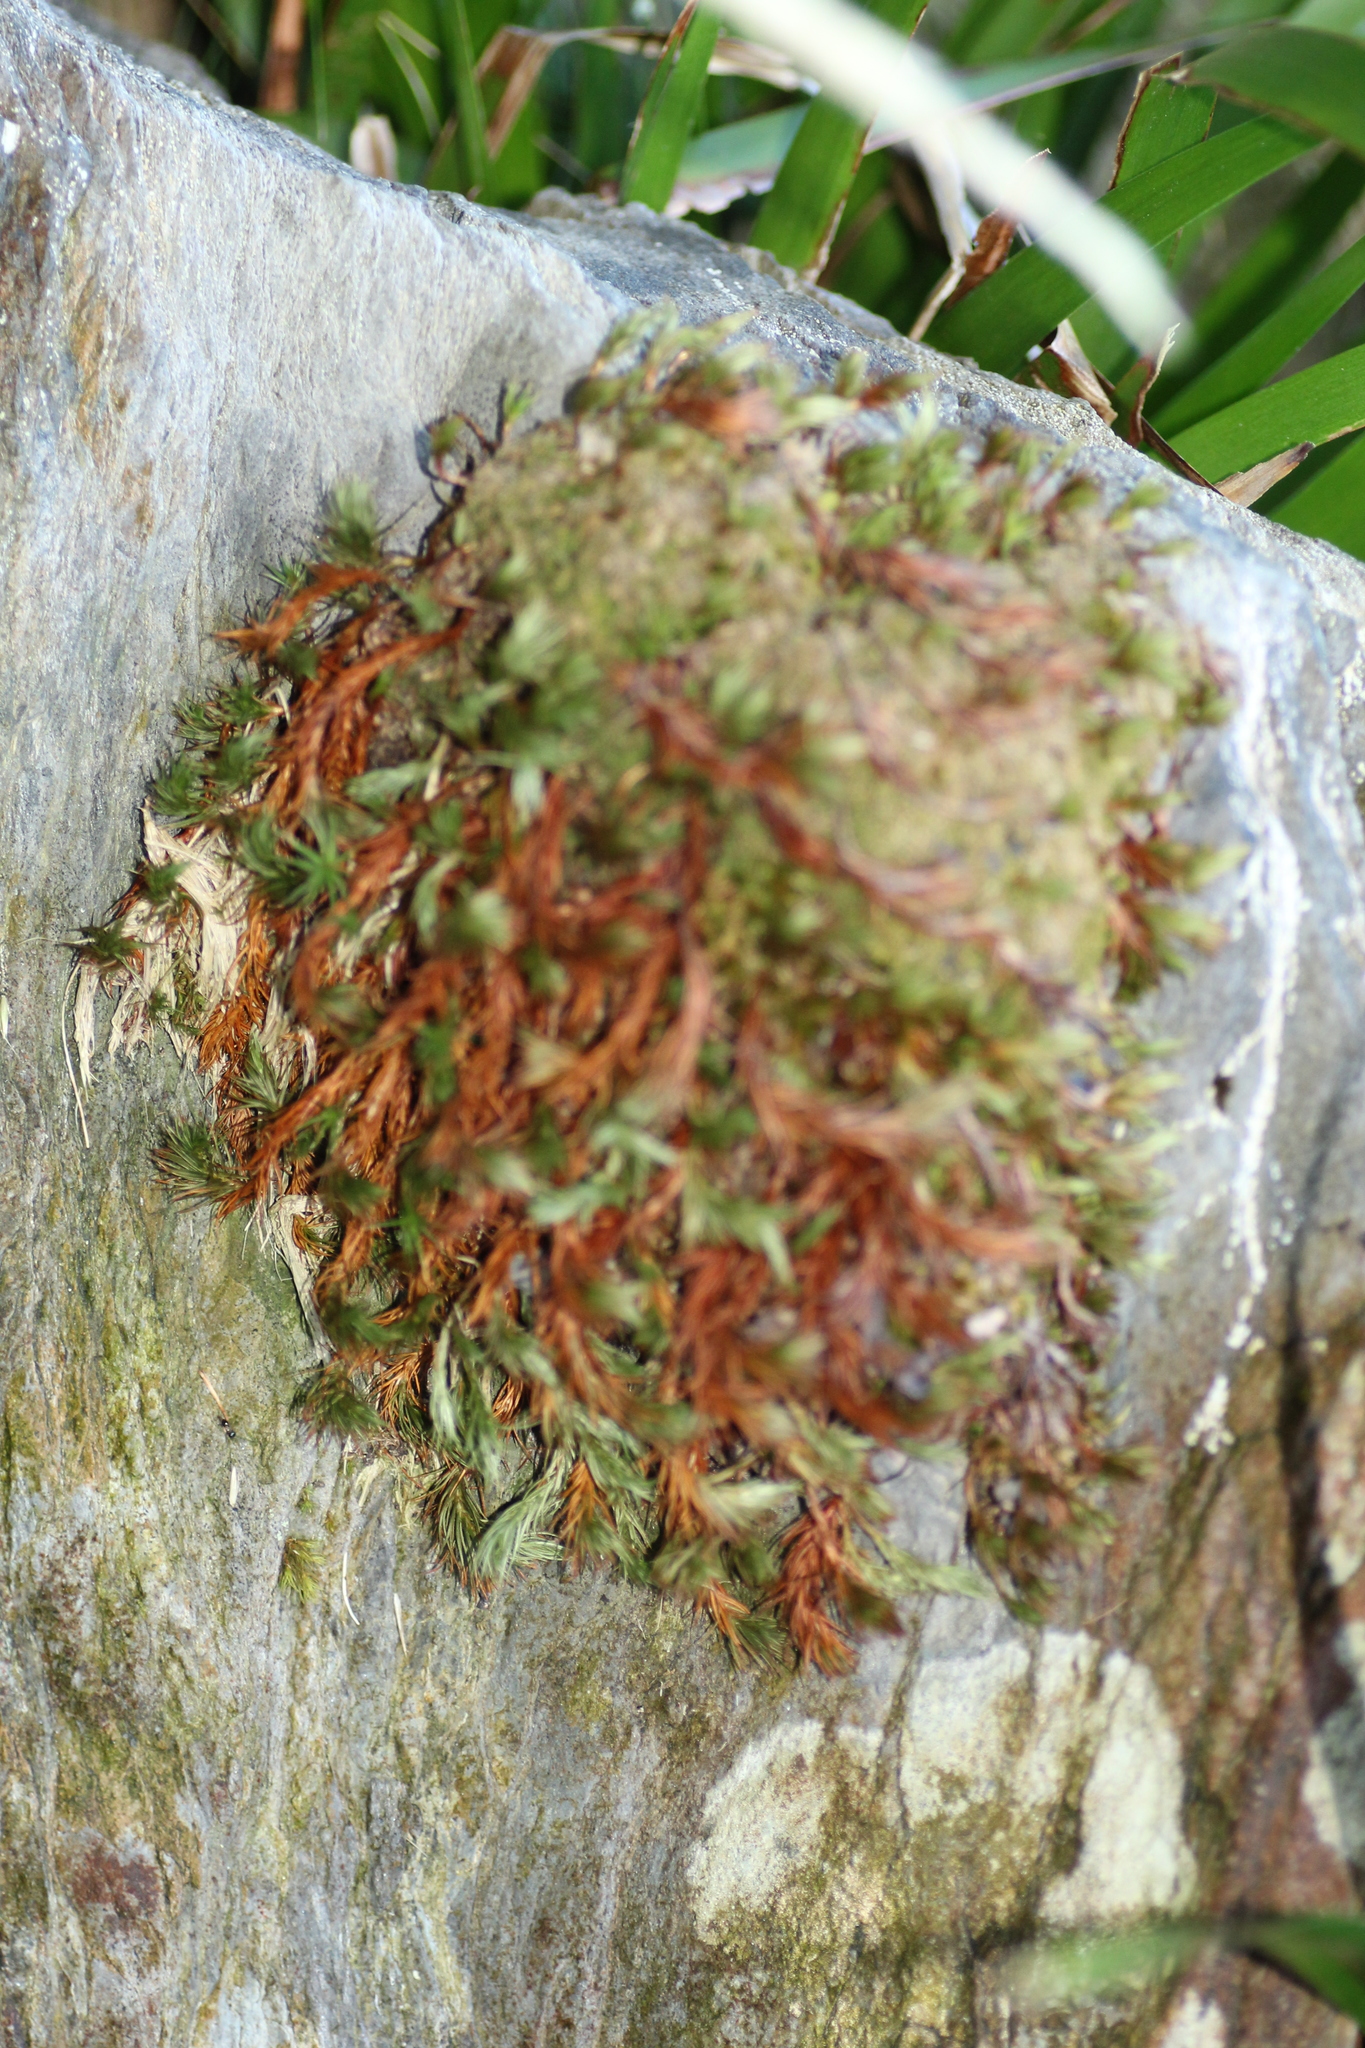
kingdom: Plantae
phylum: Bryophyta
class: Polytrichopsida
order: Polytrichales
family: Polytrichaceae
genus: Polytrichastrum
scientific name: Polytrichastrum alpinum
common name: Alpine haircap
